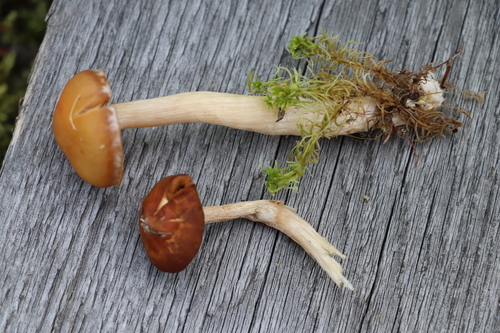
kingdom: Fungi
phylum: Basidiomycota
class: Agaricomycetes
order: Agaricales
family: Cortinariaceae
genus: Cortinarius
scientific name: Cortinarius biformis
